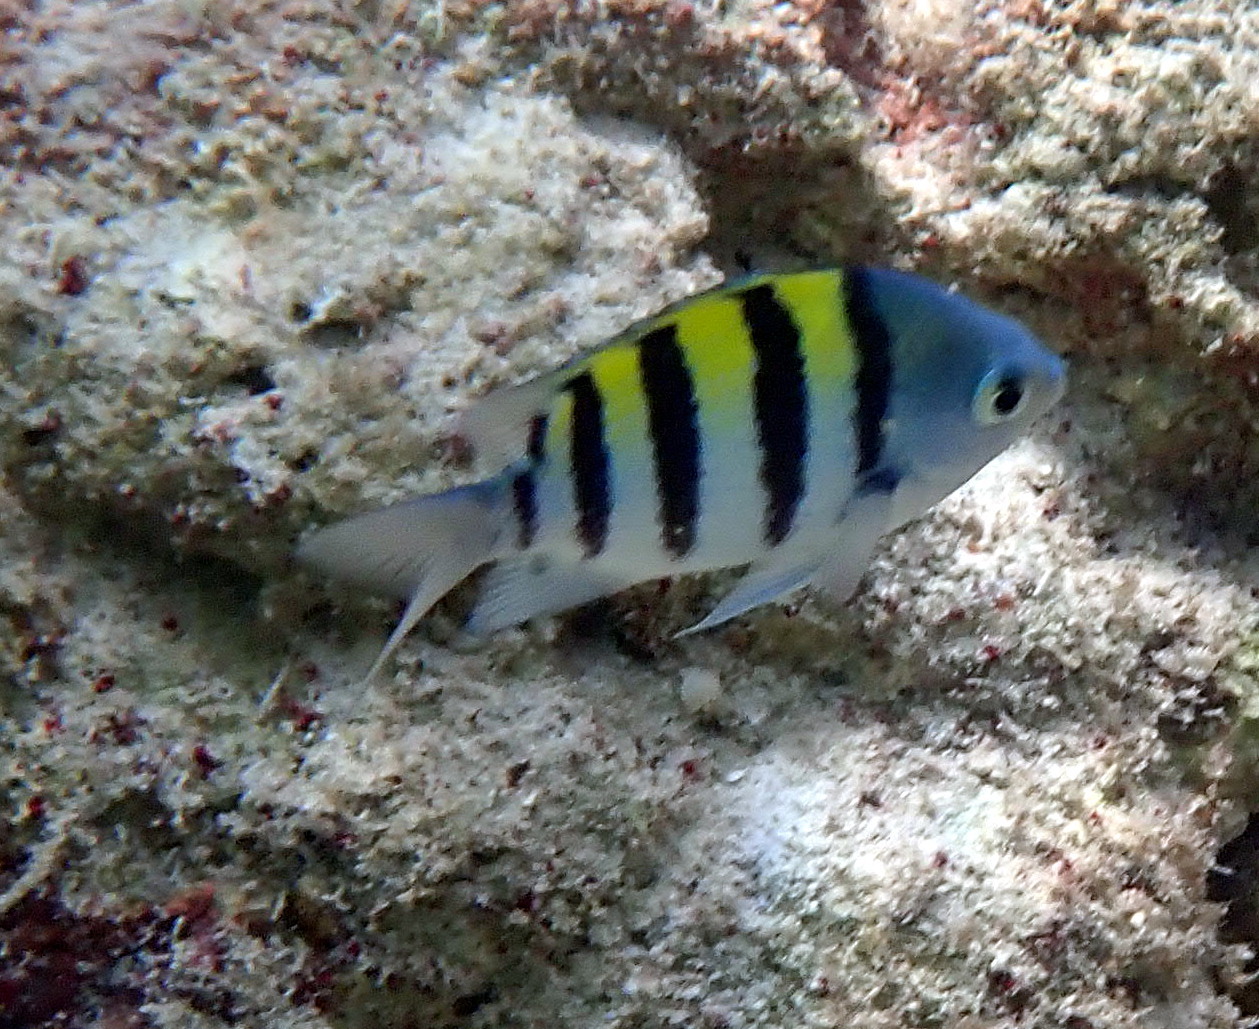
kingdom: Animalia
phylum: Chordata
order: Perciformes
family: Pomacentridae
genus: Abudefduf
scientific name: Abudefduf saxatilis
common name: Sergeant major
